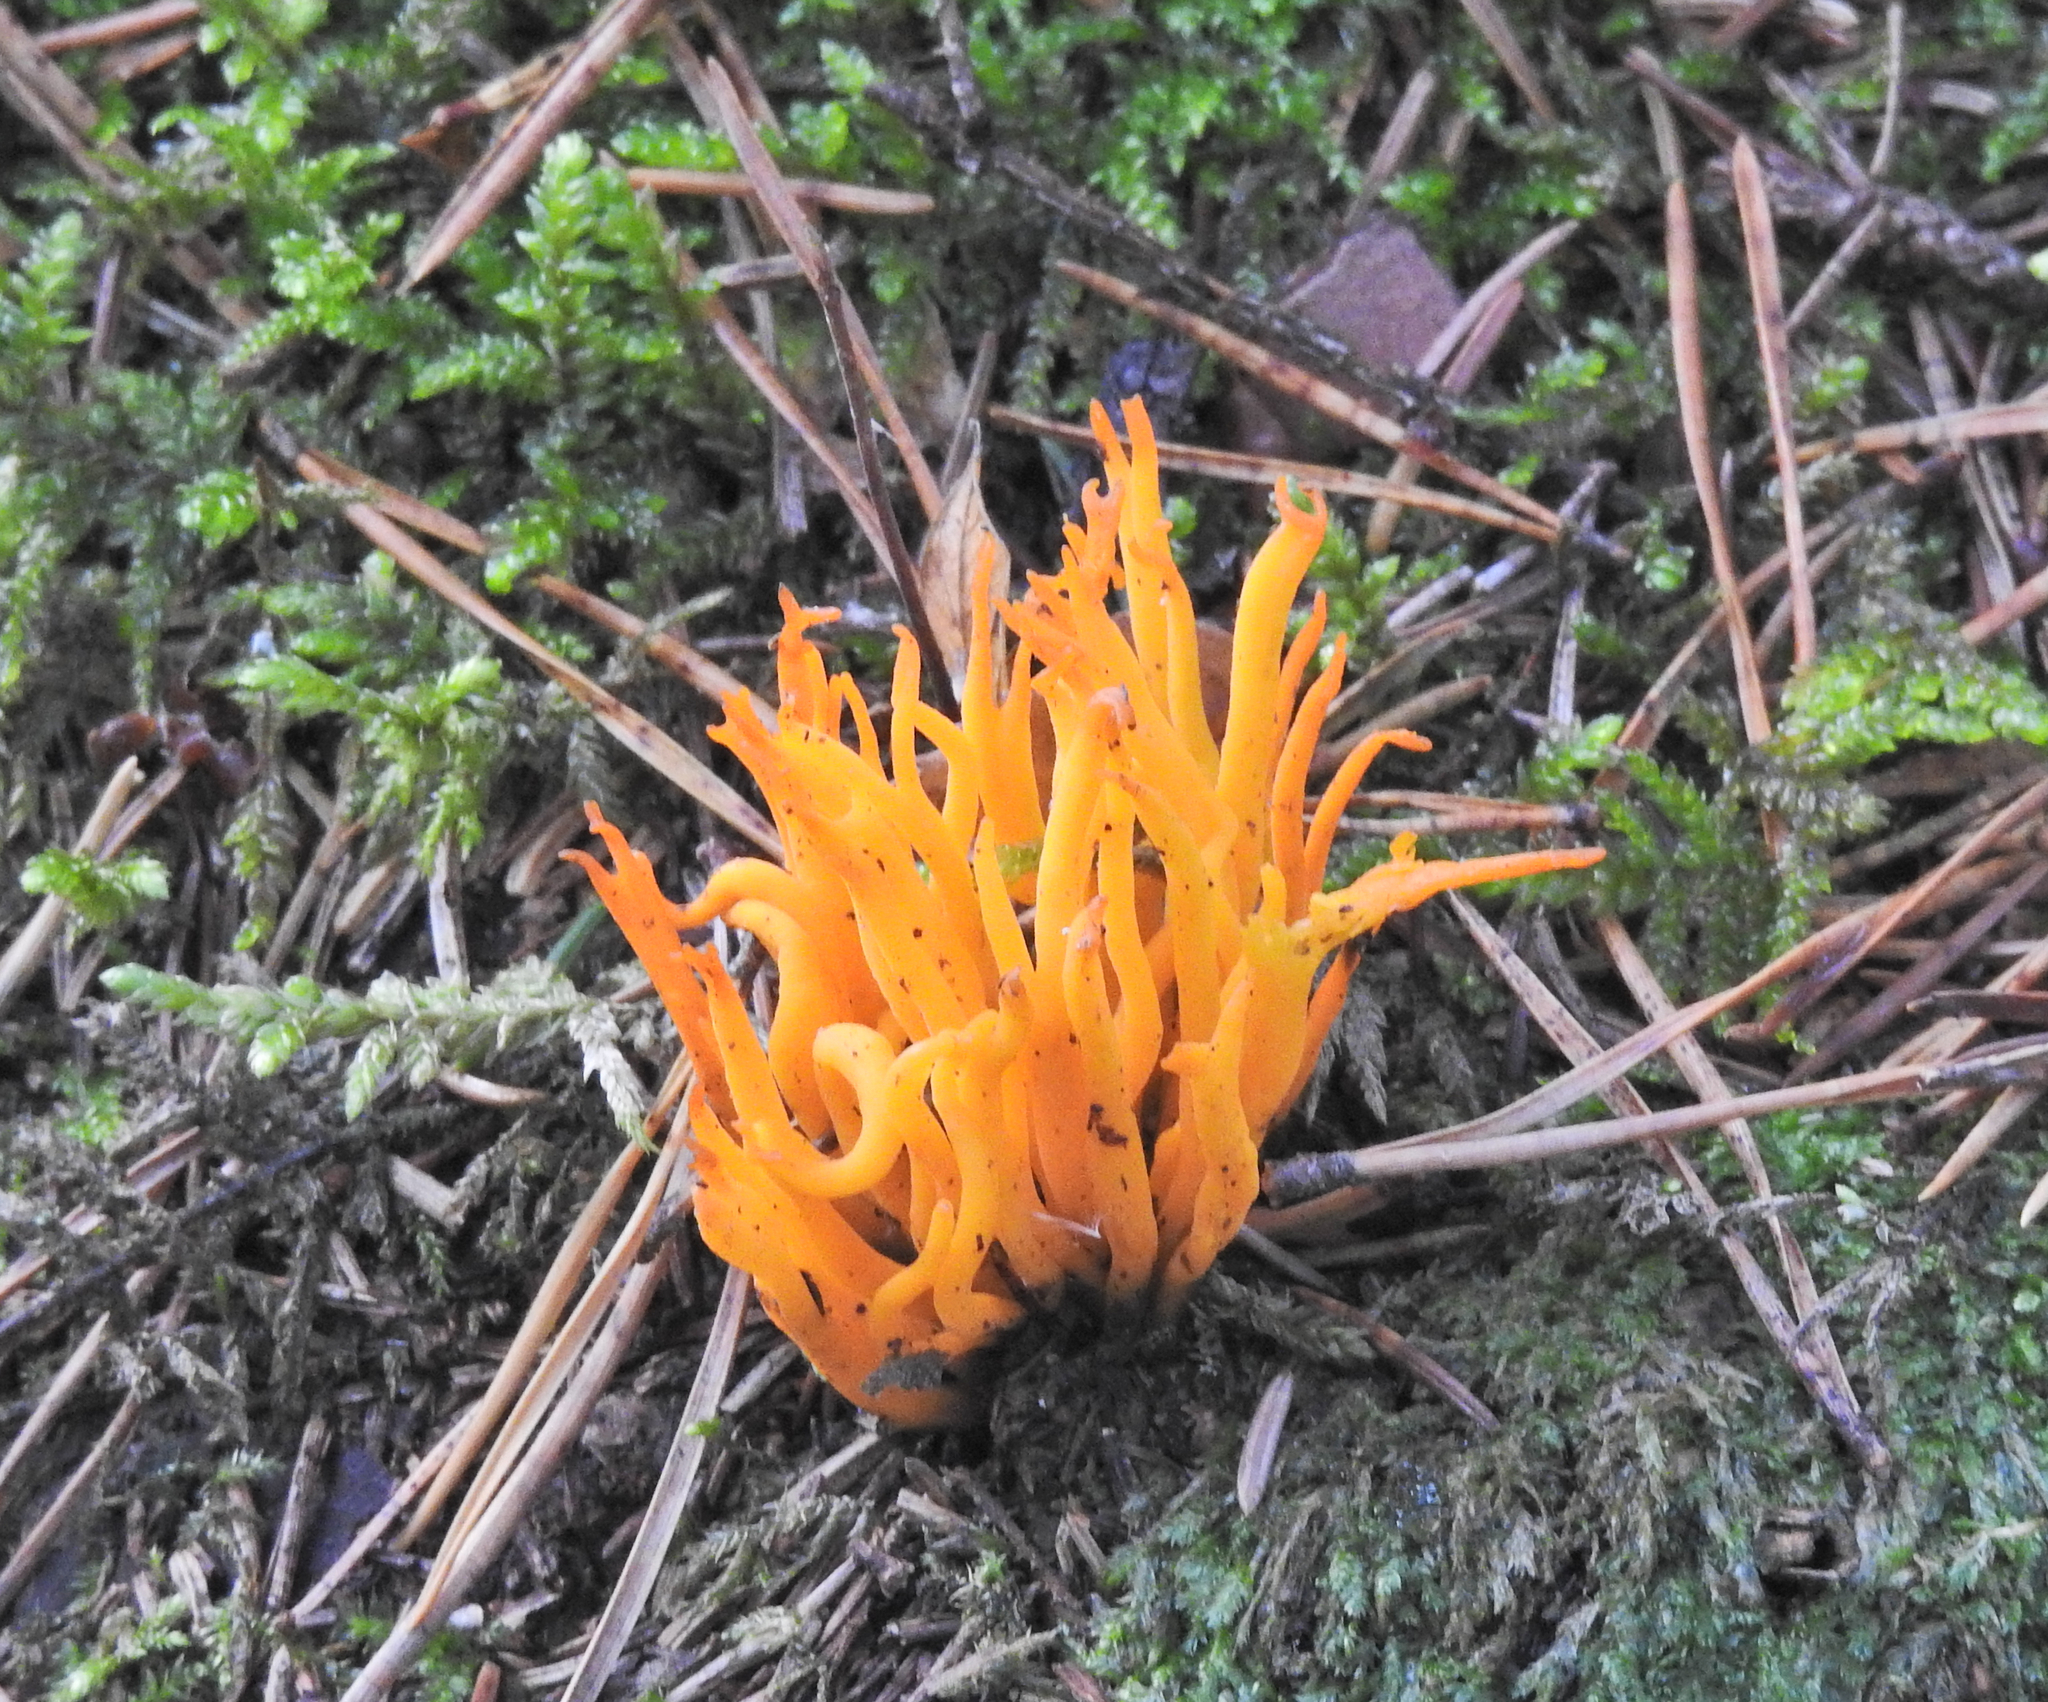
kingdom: Fungi
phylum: Basidiomycota
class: Dacrymycetes
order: Dacrymycetales
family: Dacrymycetaceae
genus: Calocera
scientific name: Calocera viscosa
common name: Yellow stagshorn
